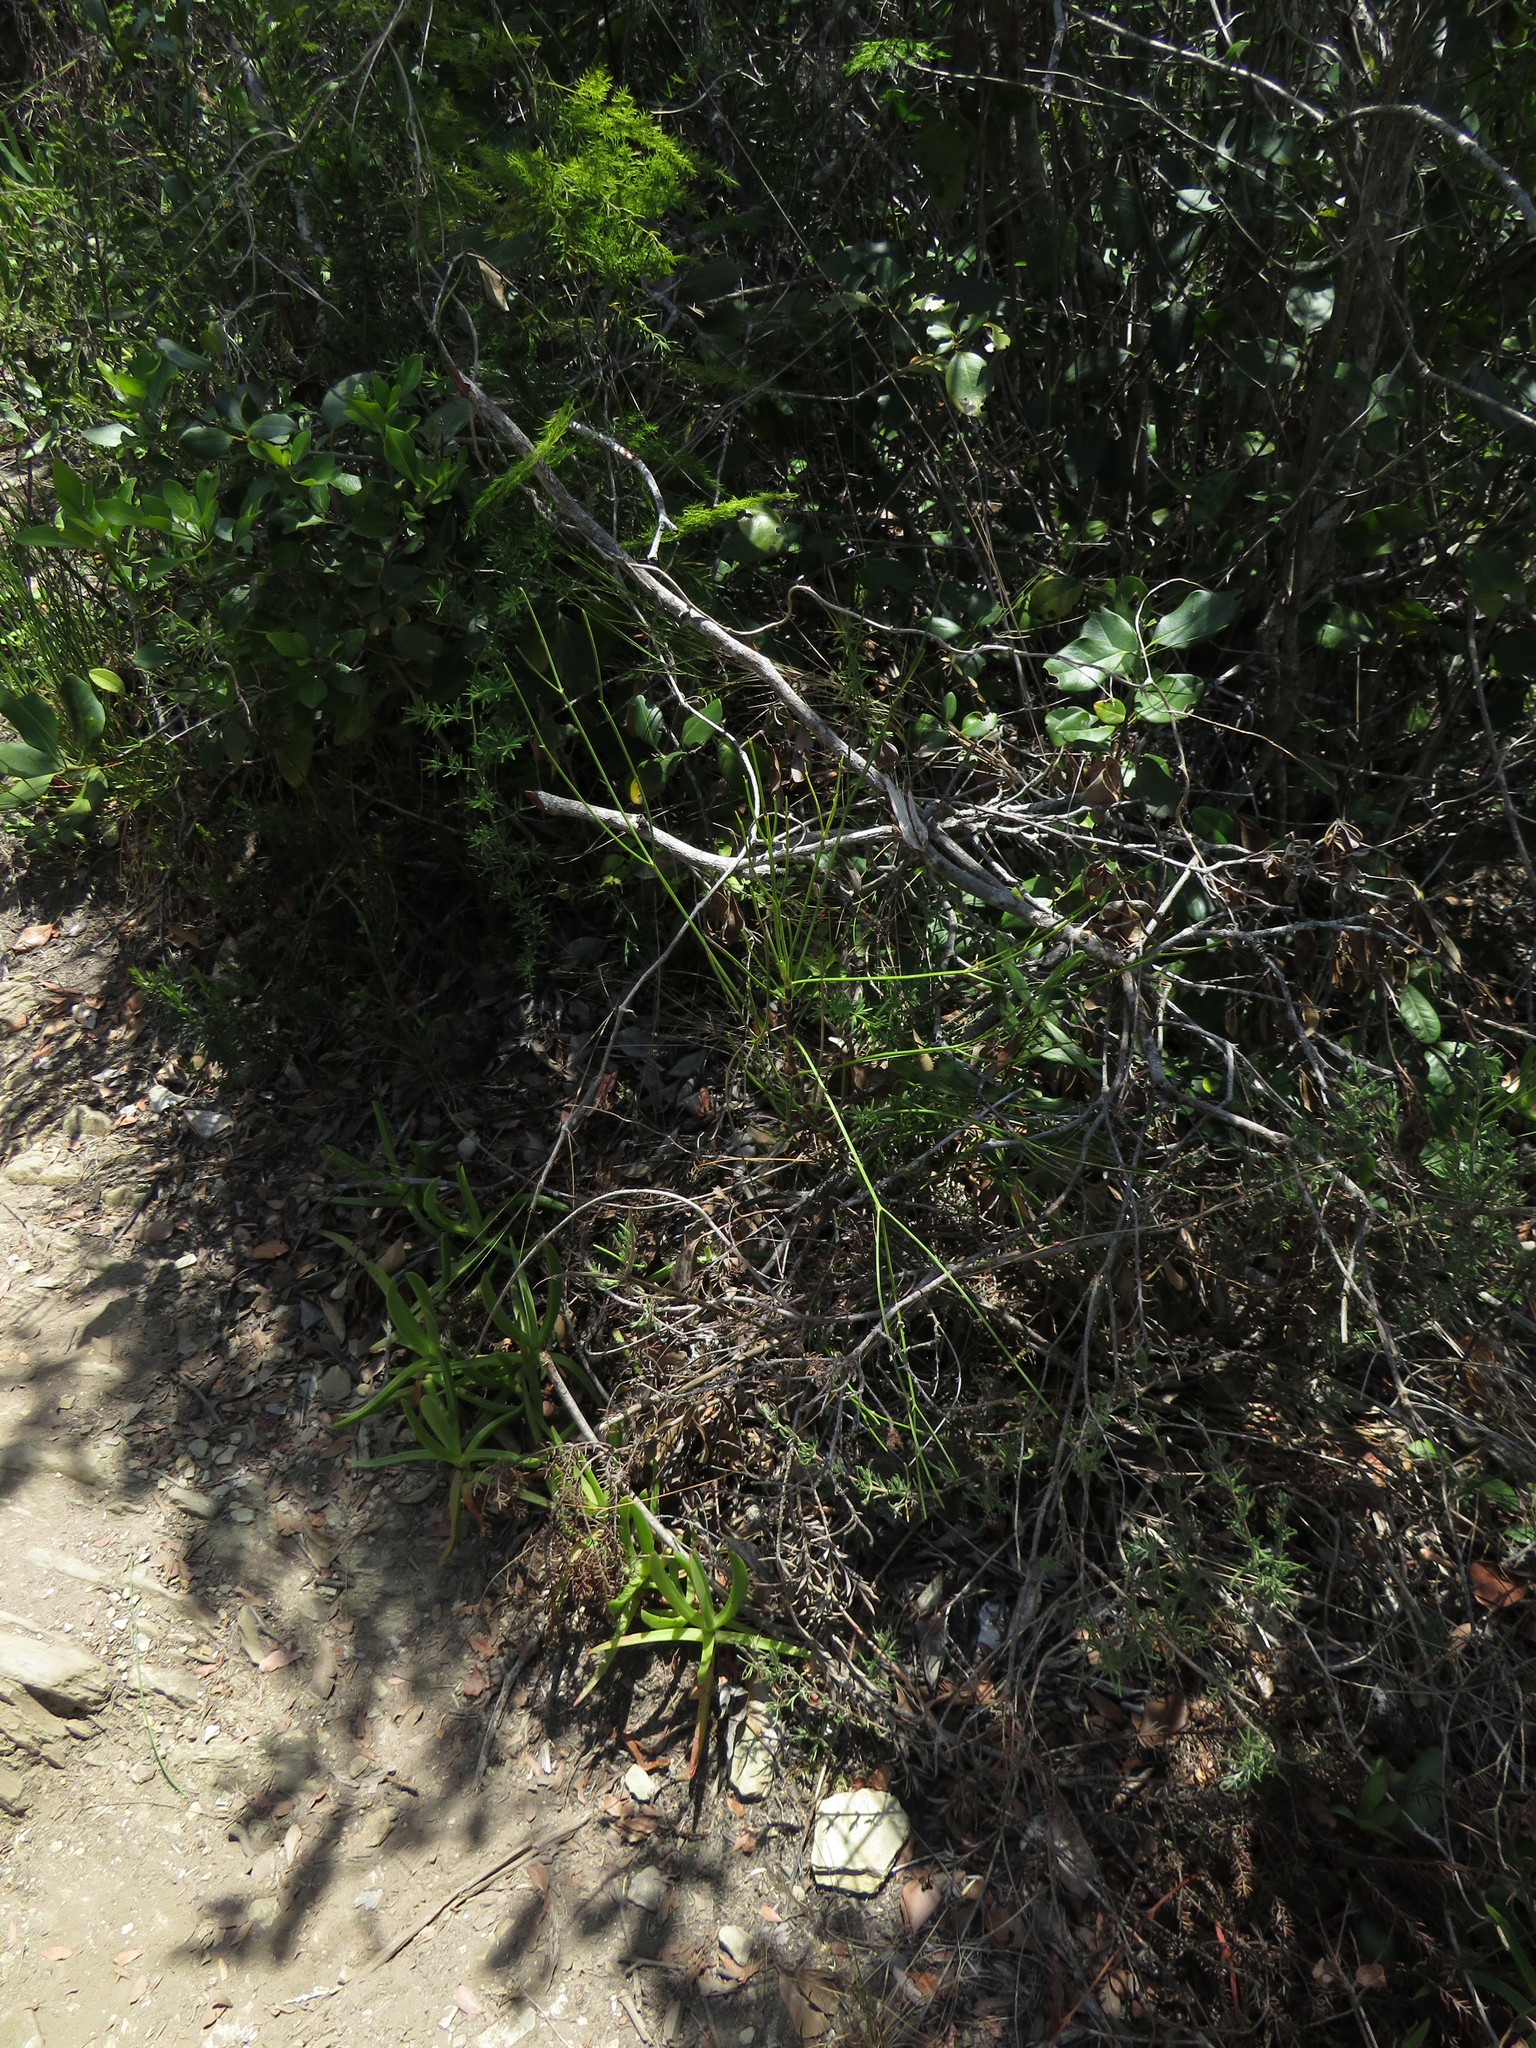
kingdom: Plantae
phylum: Tracheophyta
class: Magnoliopsida
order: Apiales
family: Apiaceae
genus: Anginon
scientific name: Anginon difforme
